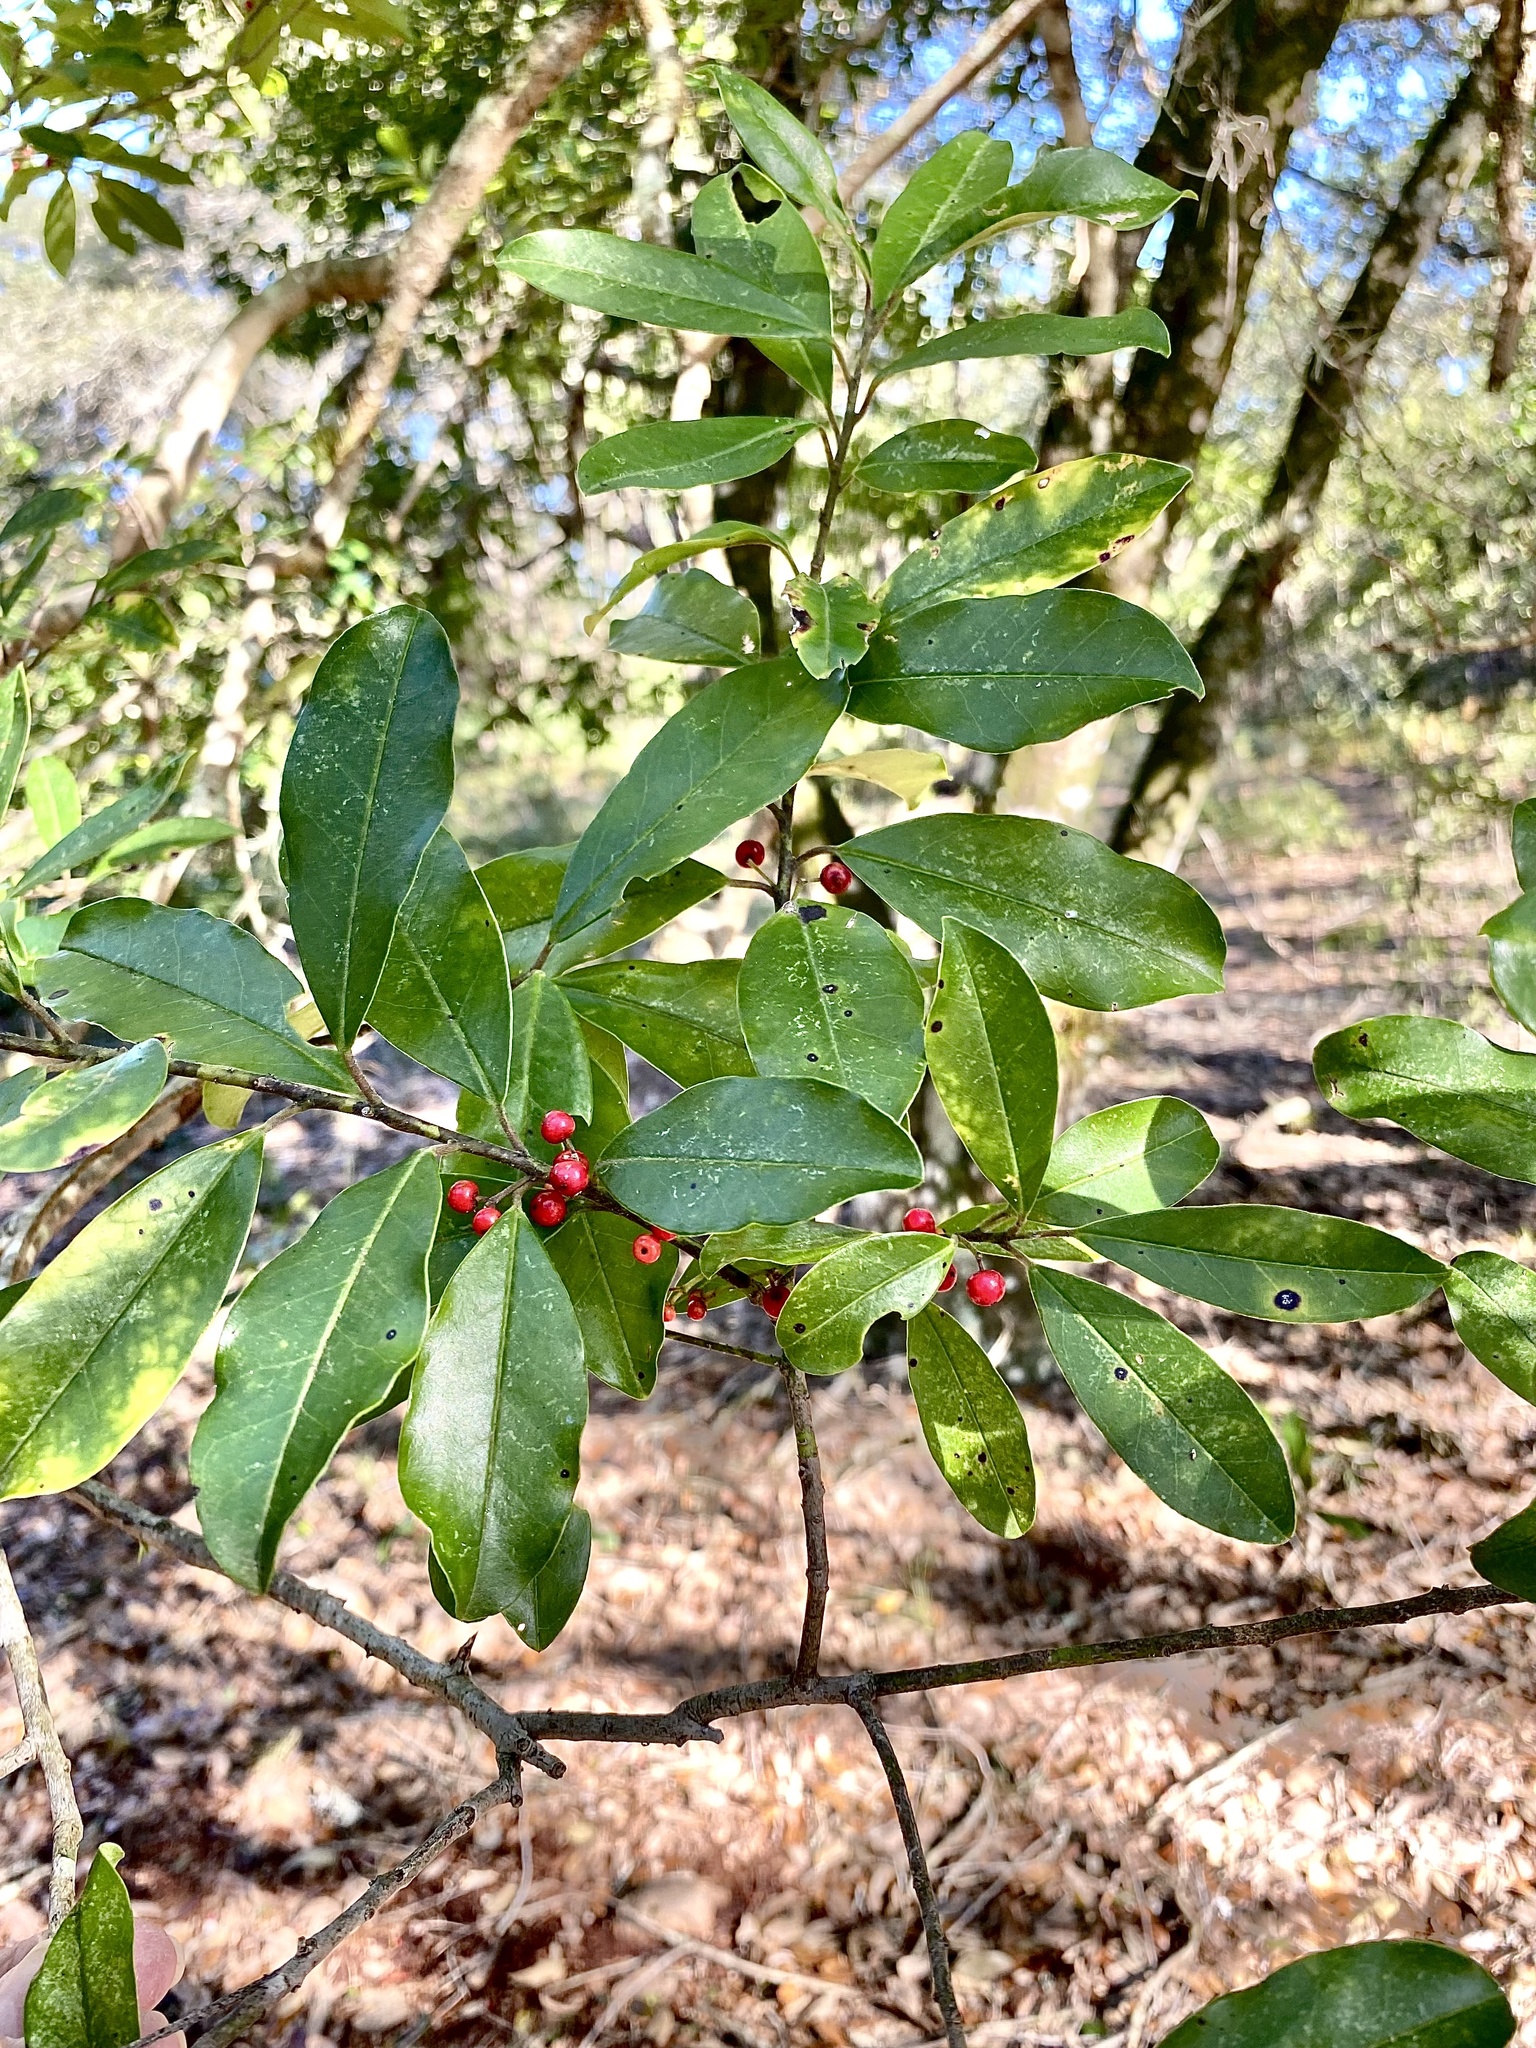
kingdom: Plantae
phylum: Tracheophyta
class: Magnoliopsida
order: Aquifoliales
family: Aquifoliaceae
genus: Ilex
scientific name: Ilex cassine
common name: Dahoon
